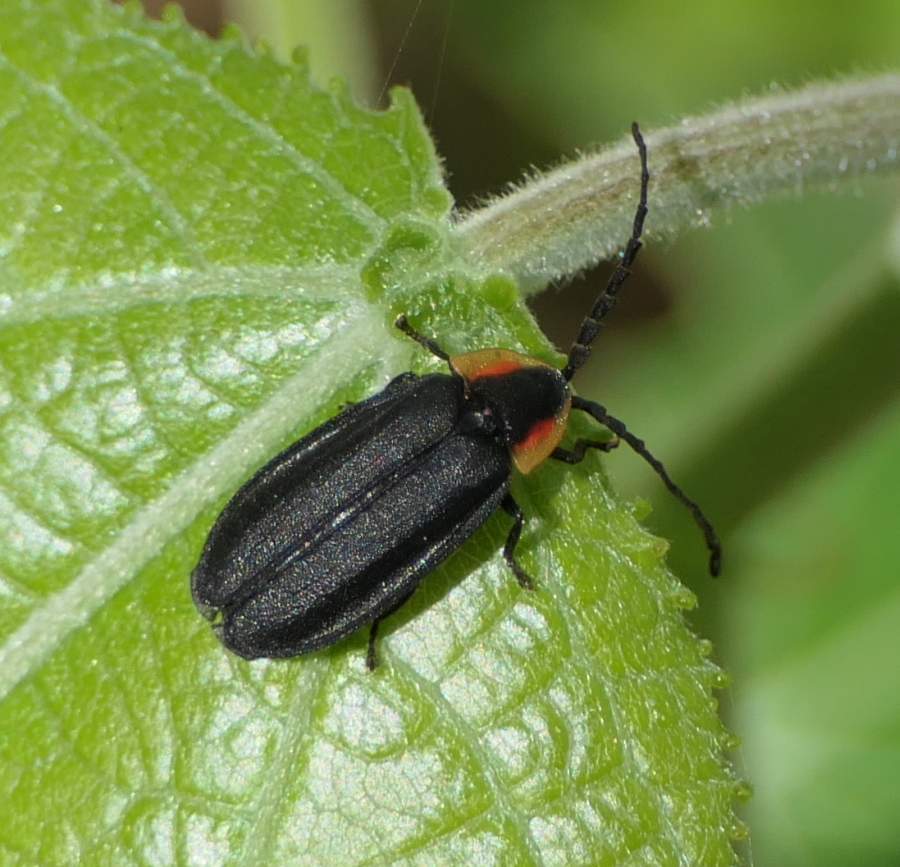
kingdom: Animalia
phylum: Arthropoda
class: Insecta
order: Coleoptera
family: Lampyridae
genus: Lucidota
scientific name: Lucidota atra
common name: Black firefly
